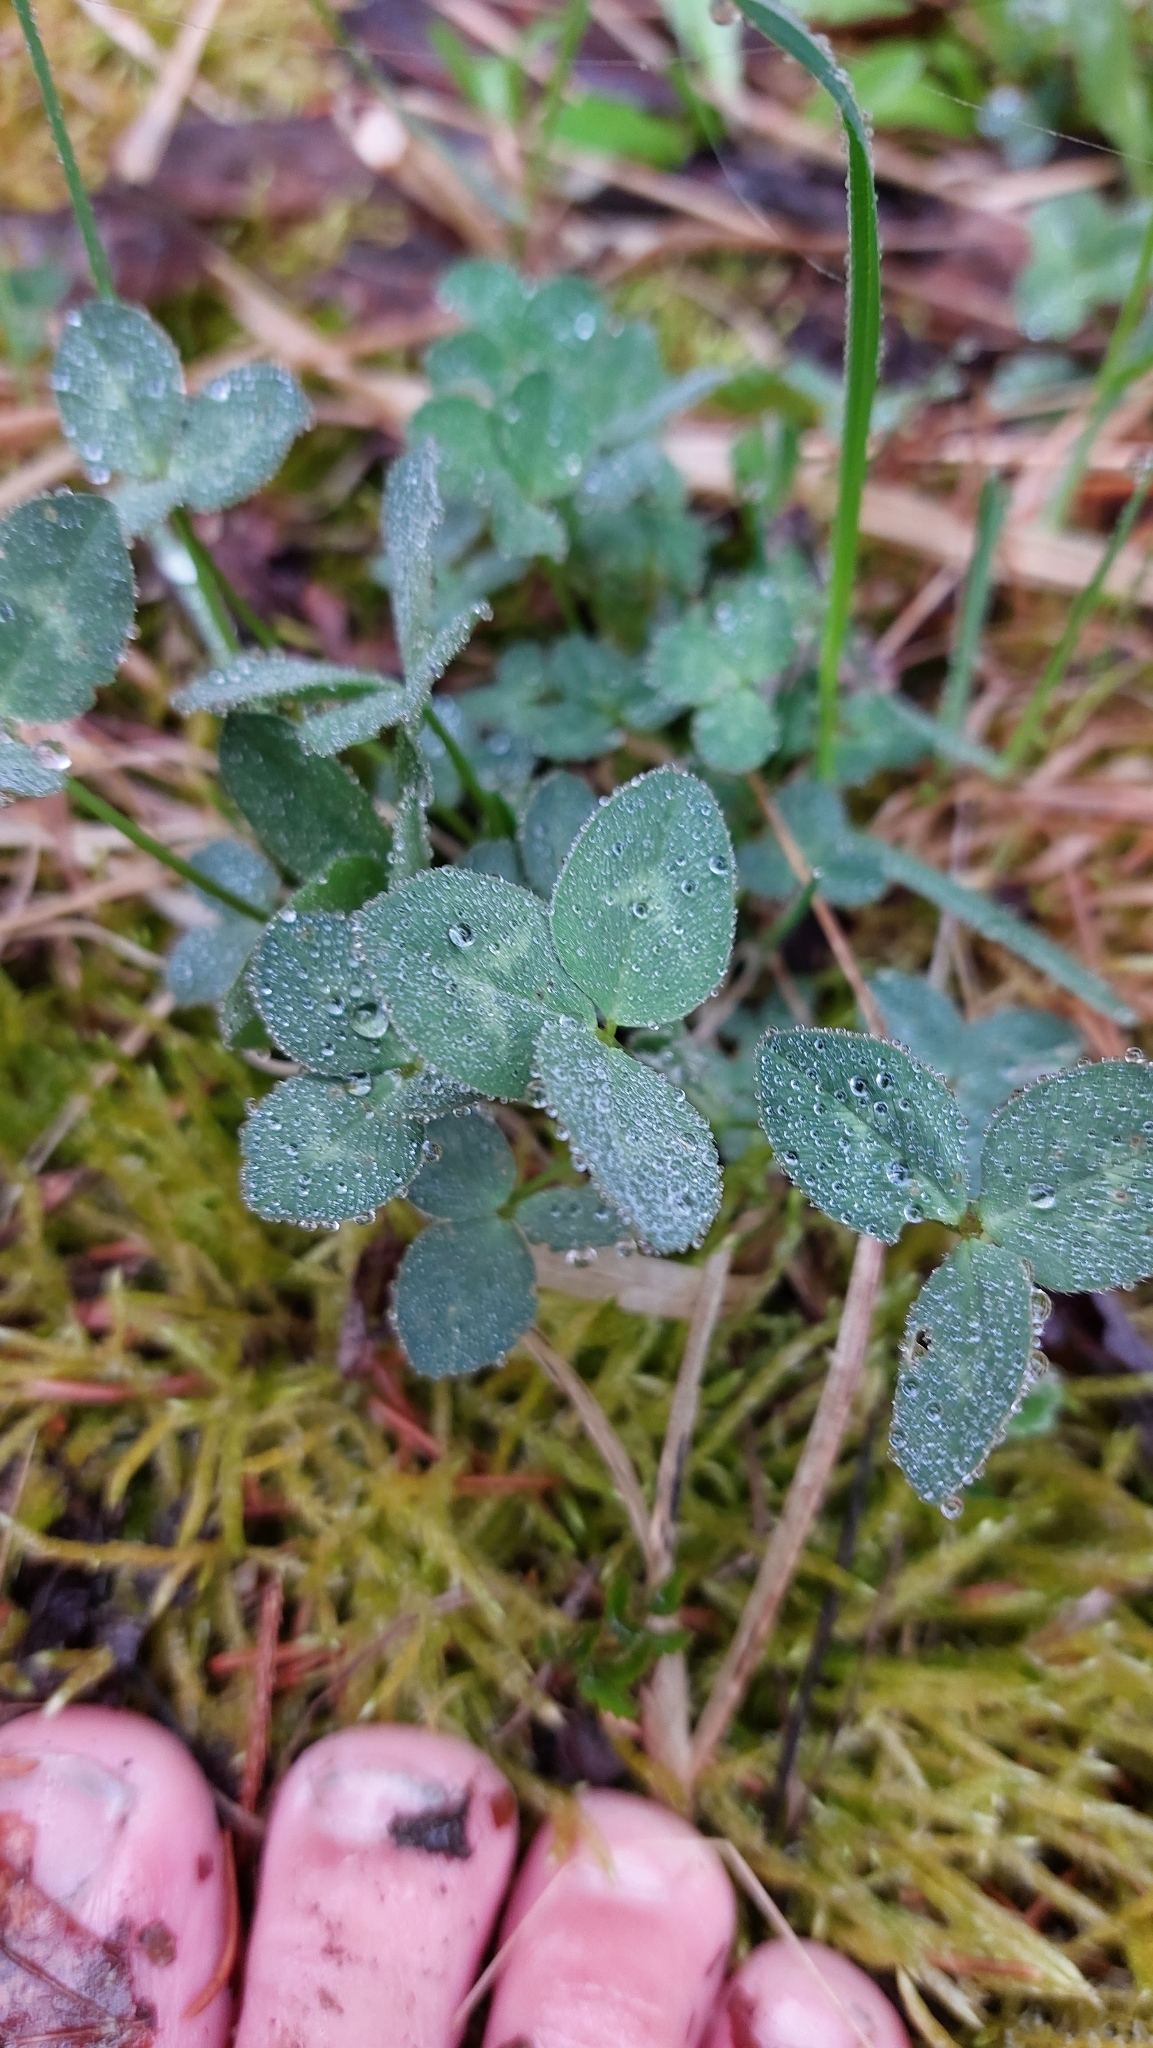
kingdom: Plantae
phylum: Tracheophyta
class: Magnoliopsida
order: Fabales
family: Fabaceae
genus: Trifolium
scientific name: Trifolium pratense
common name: Red clover
